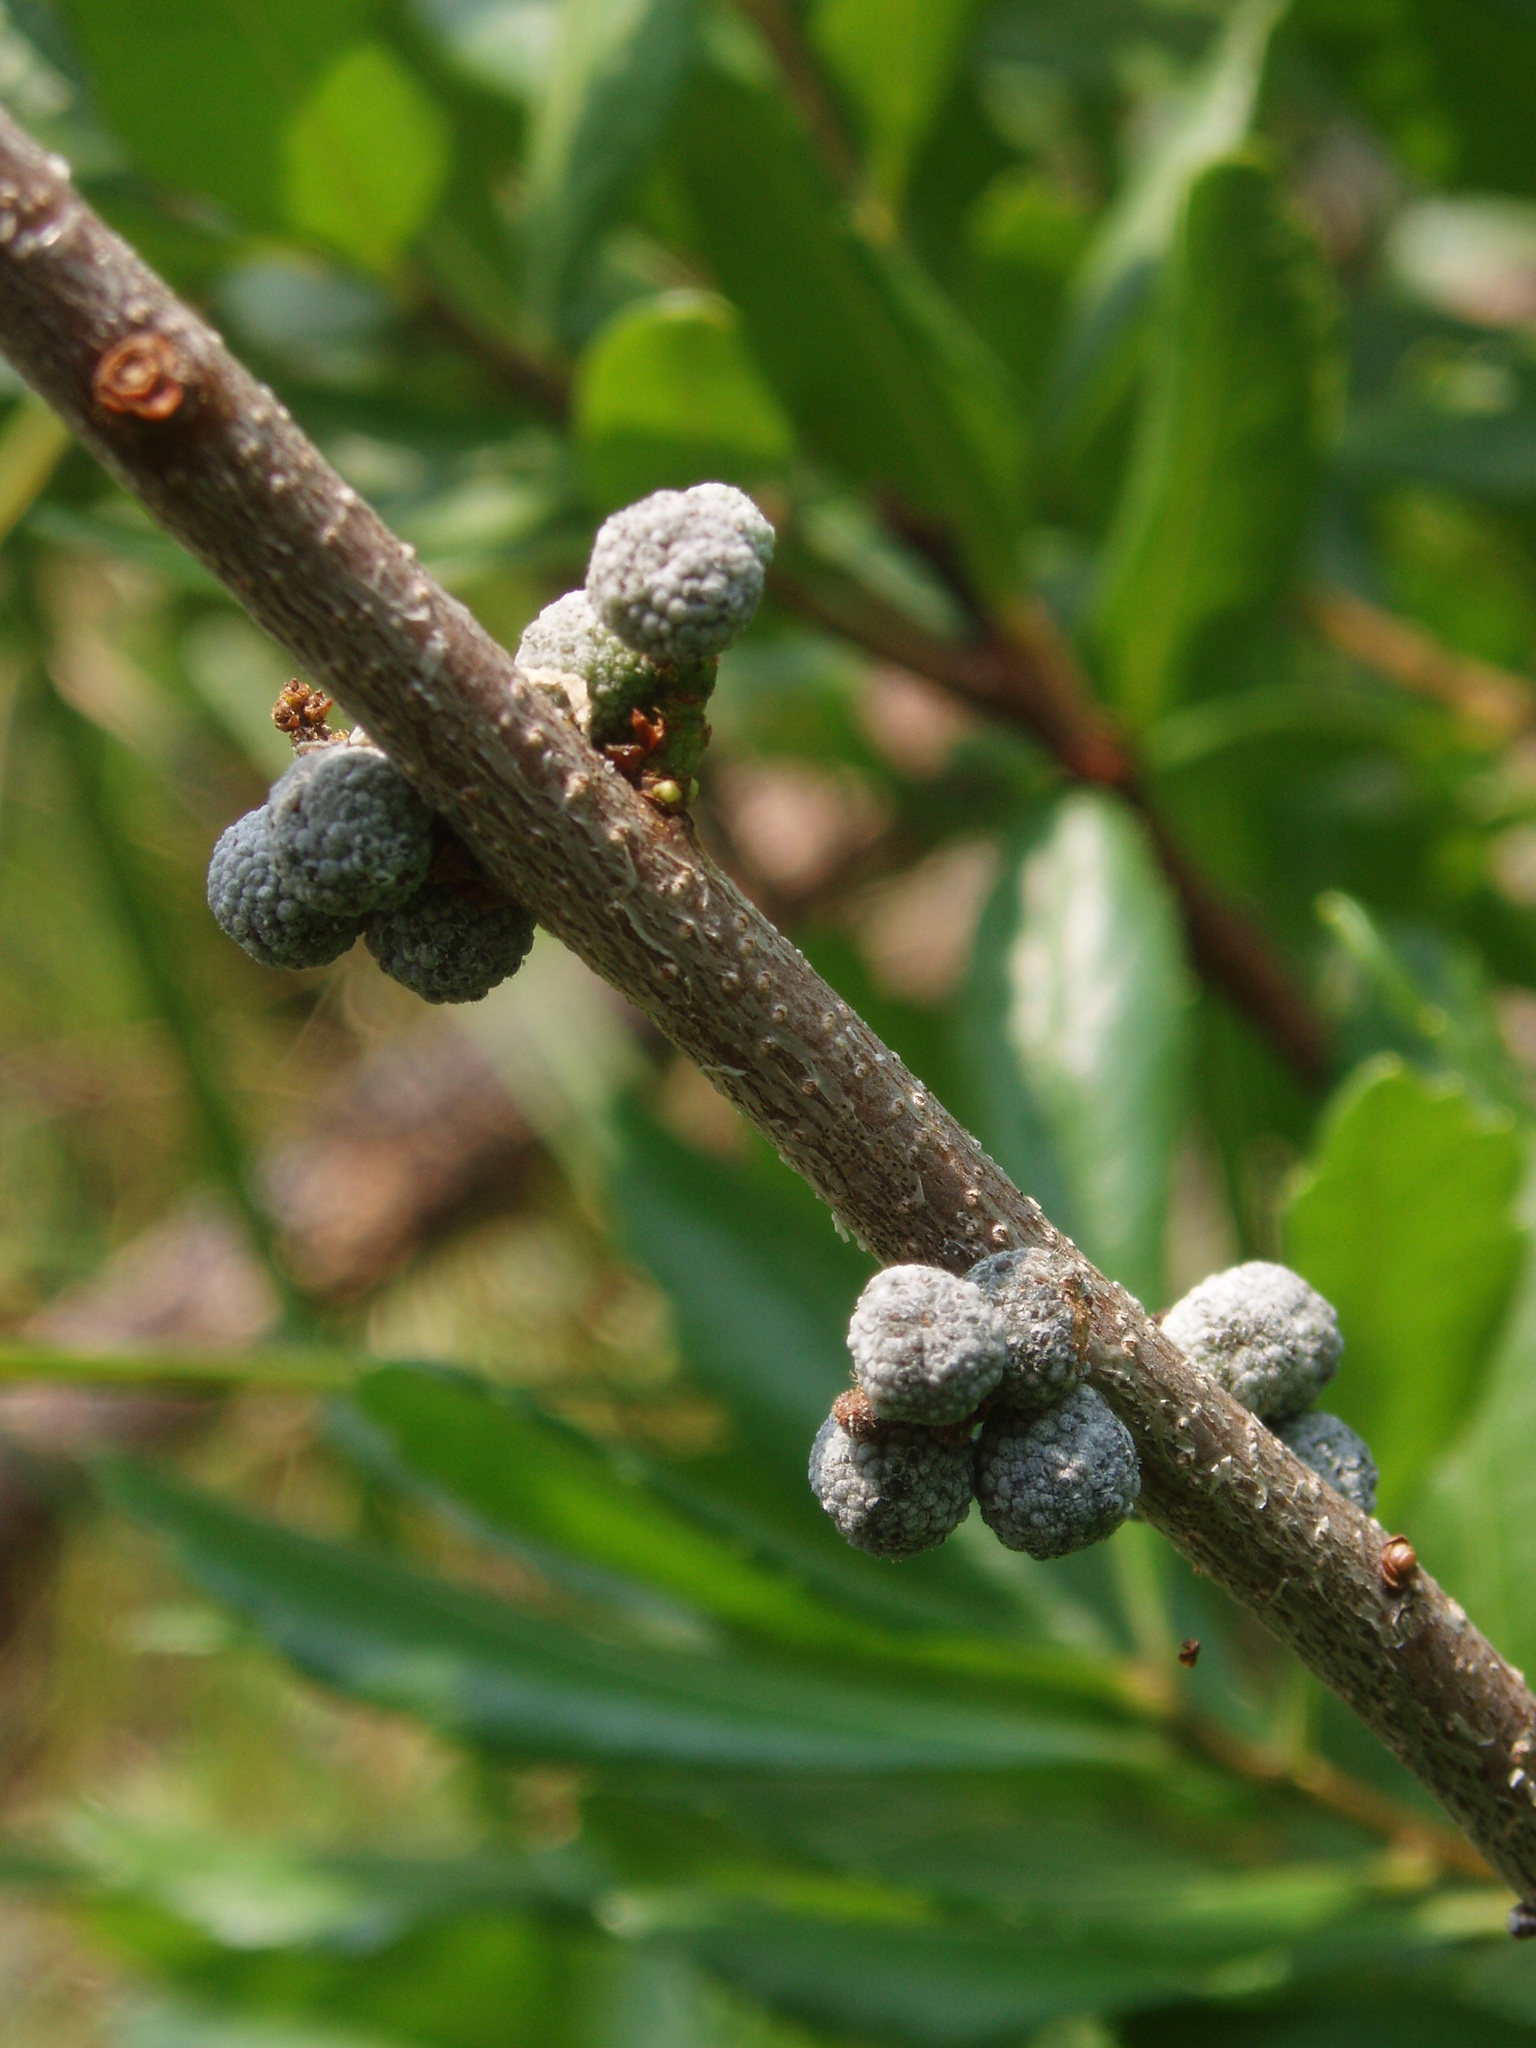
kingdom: Plantae
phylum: Tracheophyta
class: Magnoliopsida
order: Fagales
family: Myricaceae
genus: Morella
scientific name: Morella pensylvanica
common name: Northern bayberry
